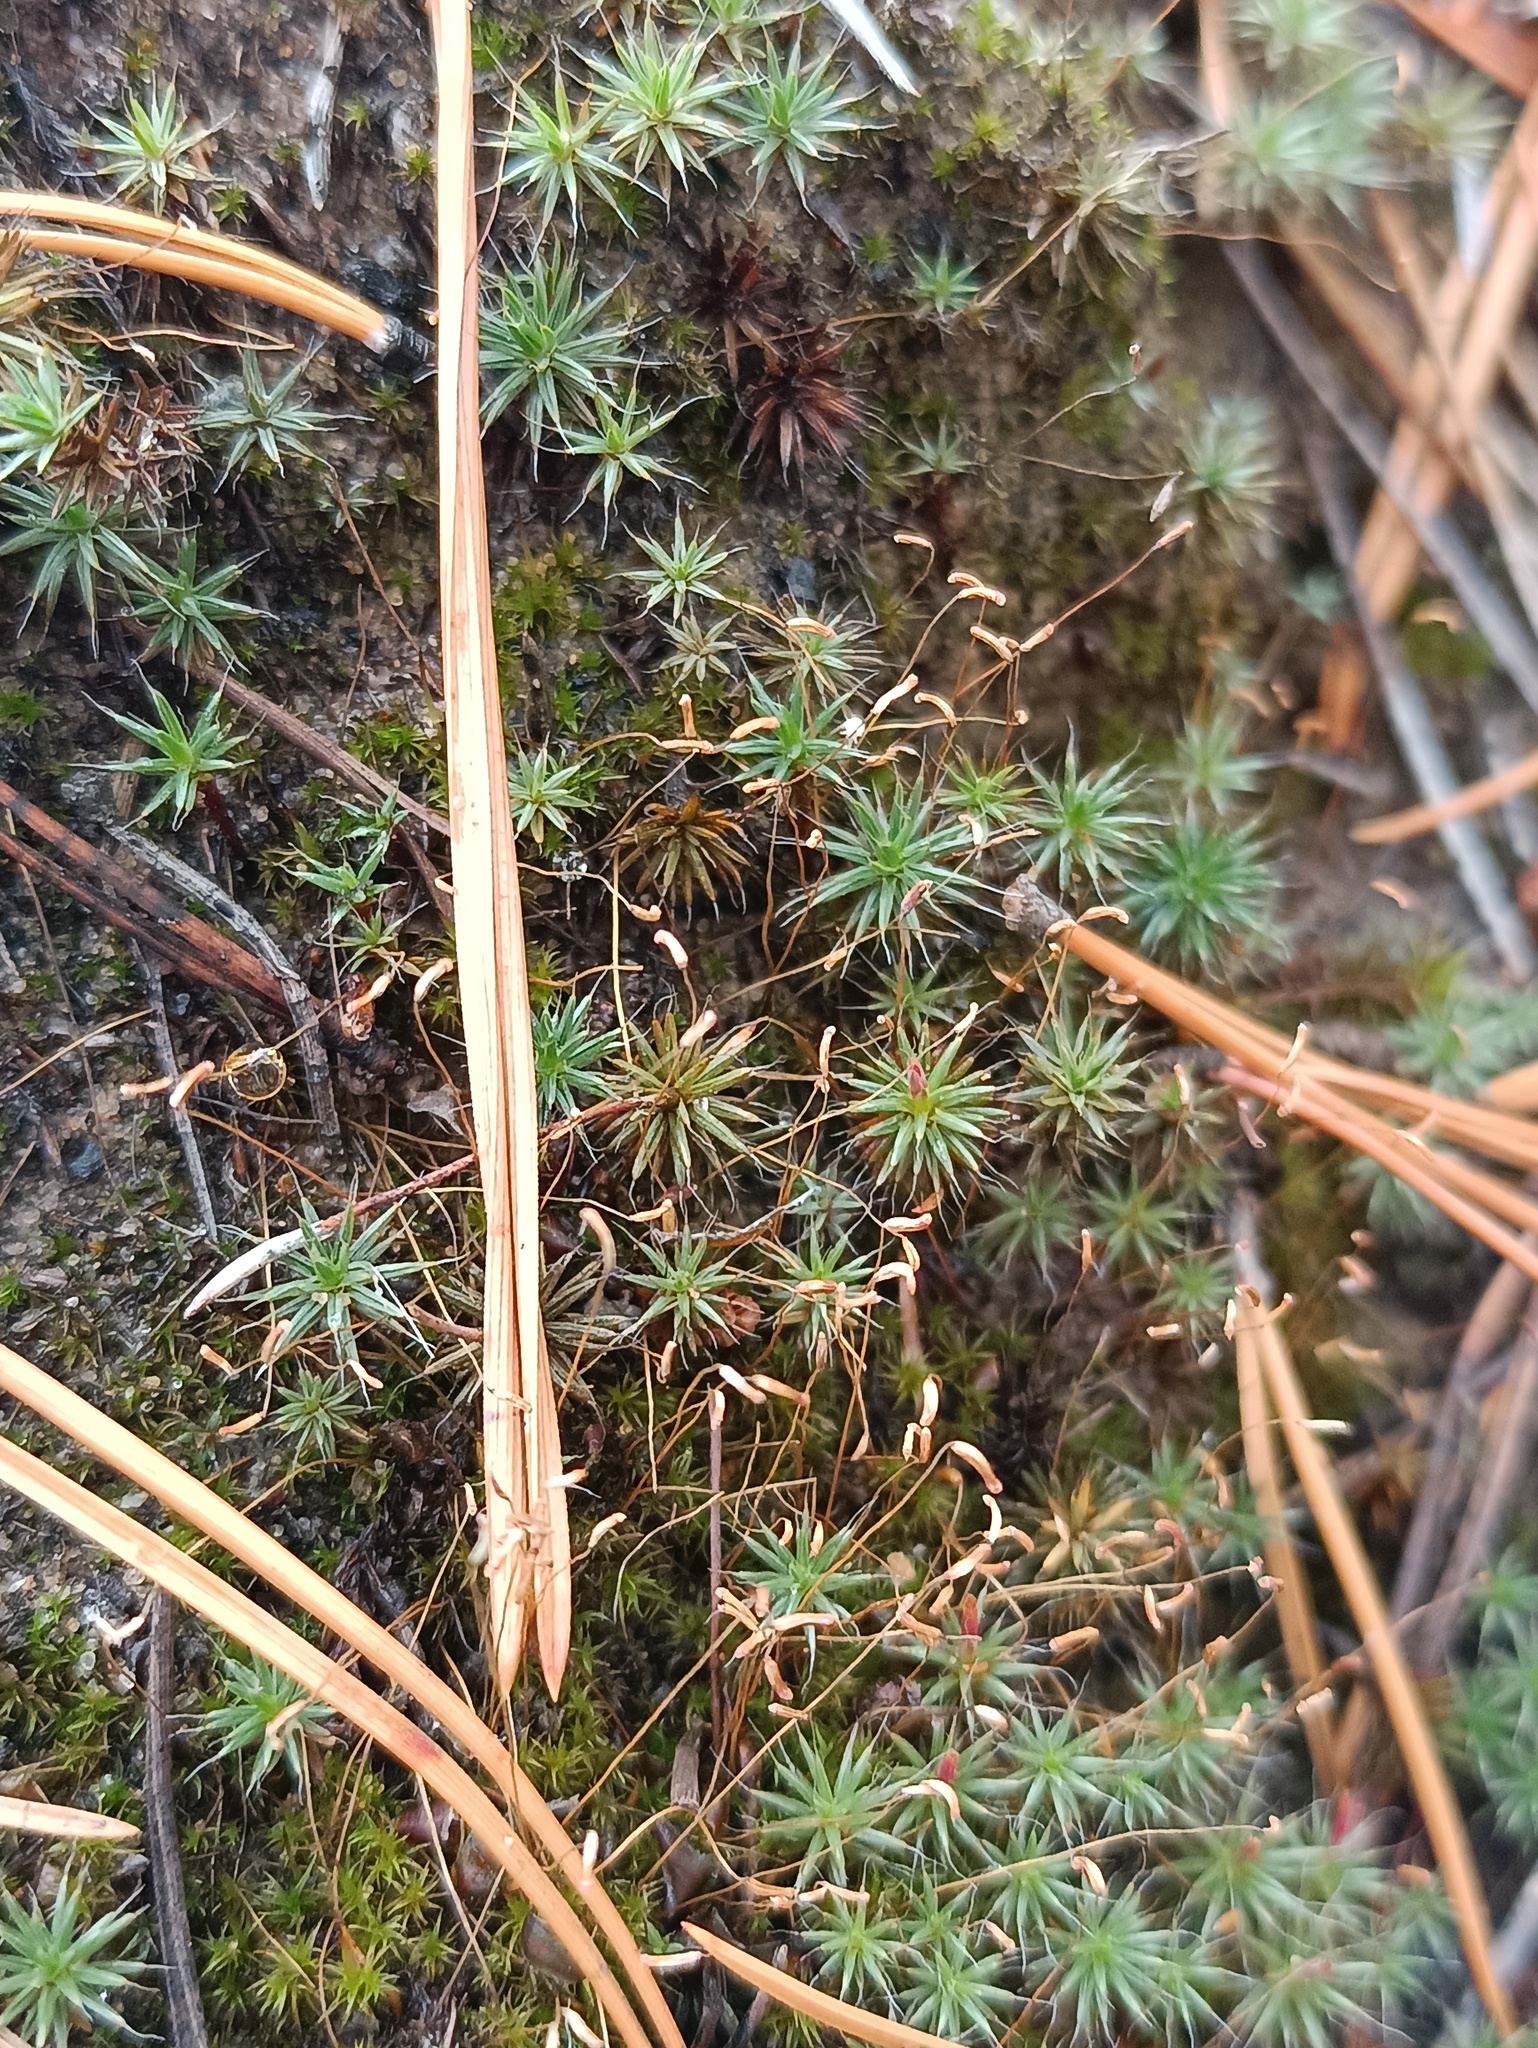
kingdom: Plantae
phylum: Bryophyta
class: Polytrichopsida
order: Polytrichales
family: Polytrichaceae
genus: Polytrichum
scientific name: Polytrichum piliferum
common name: Bristly haircap
